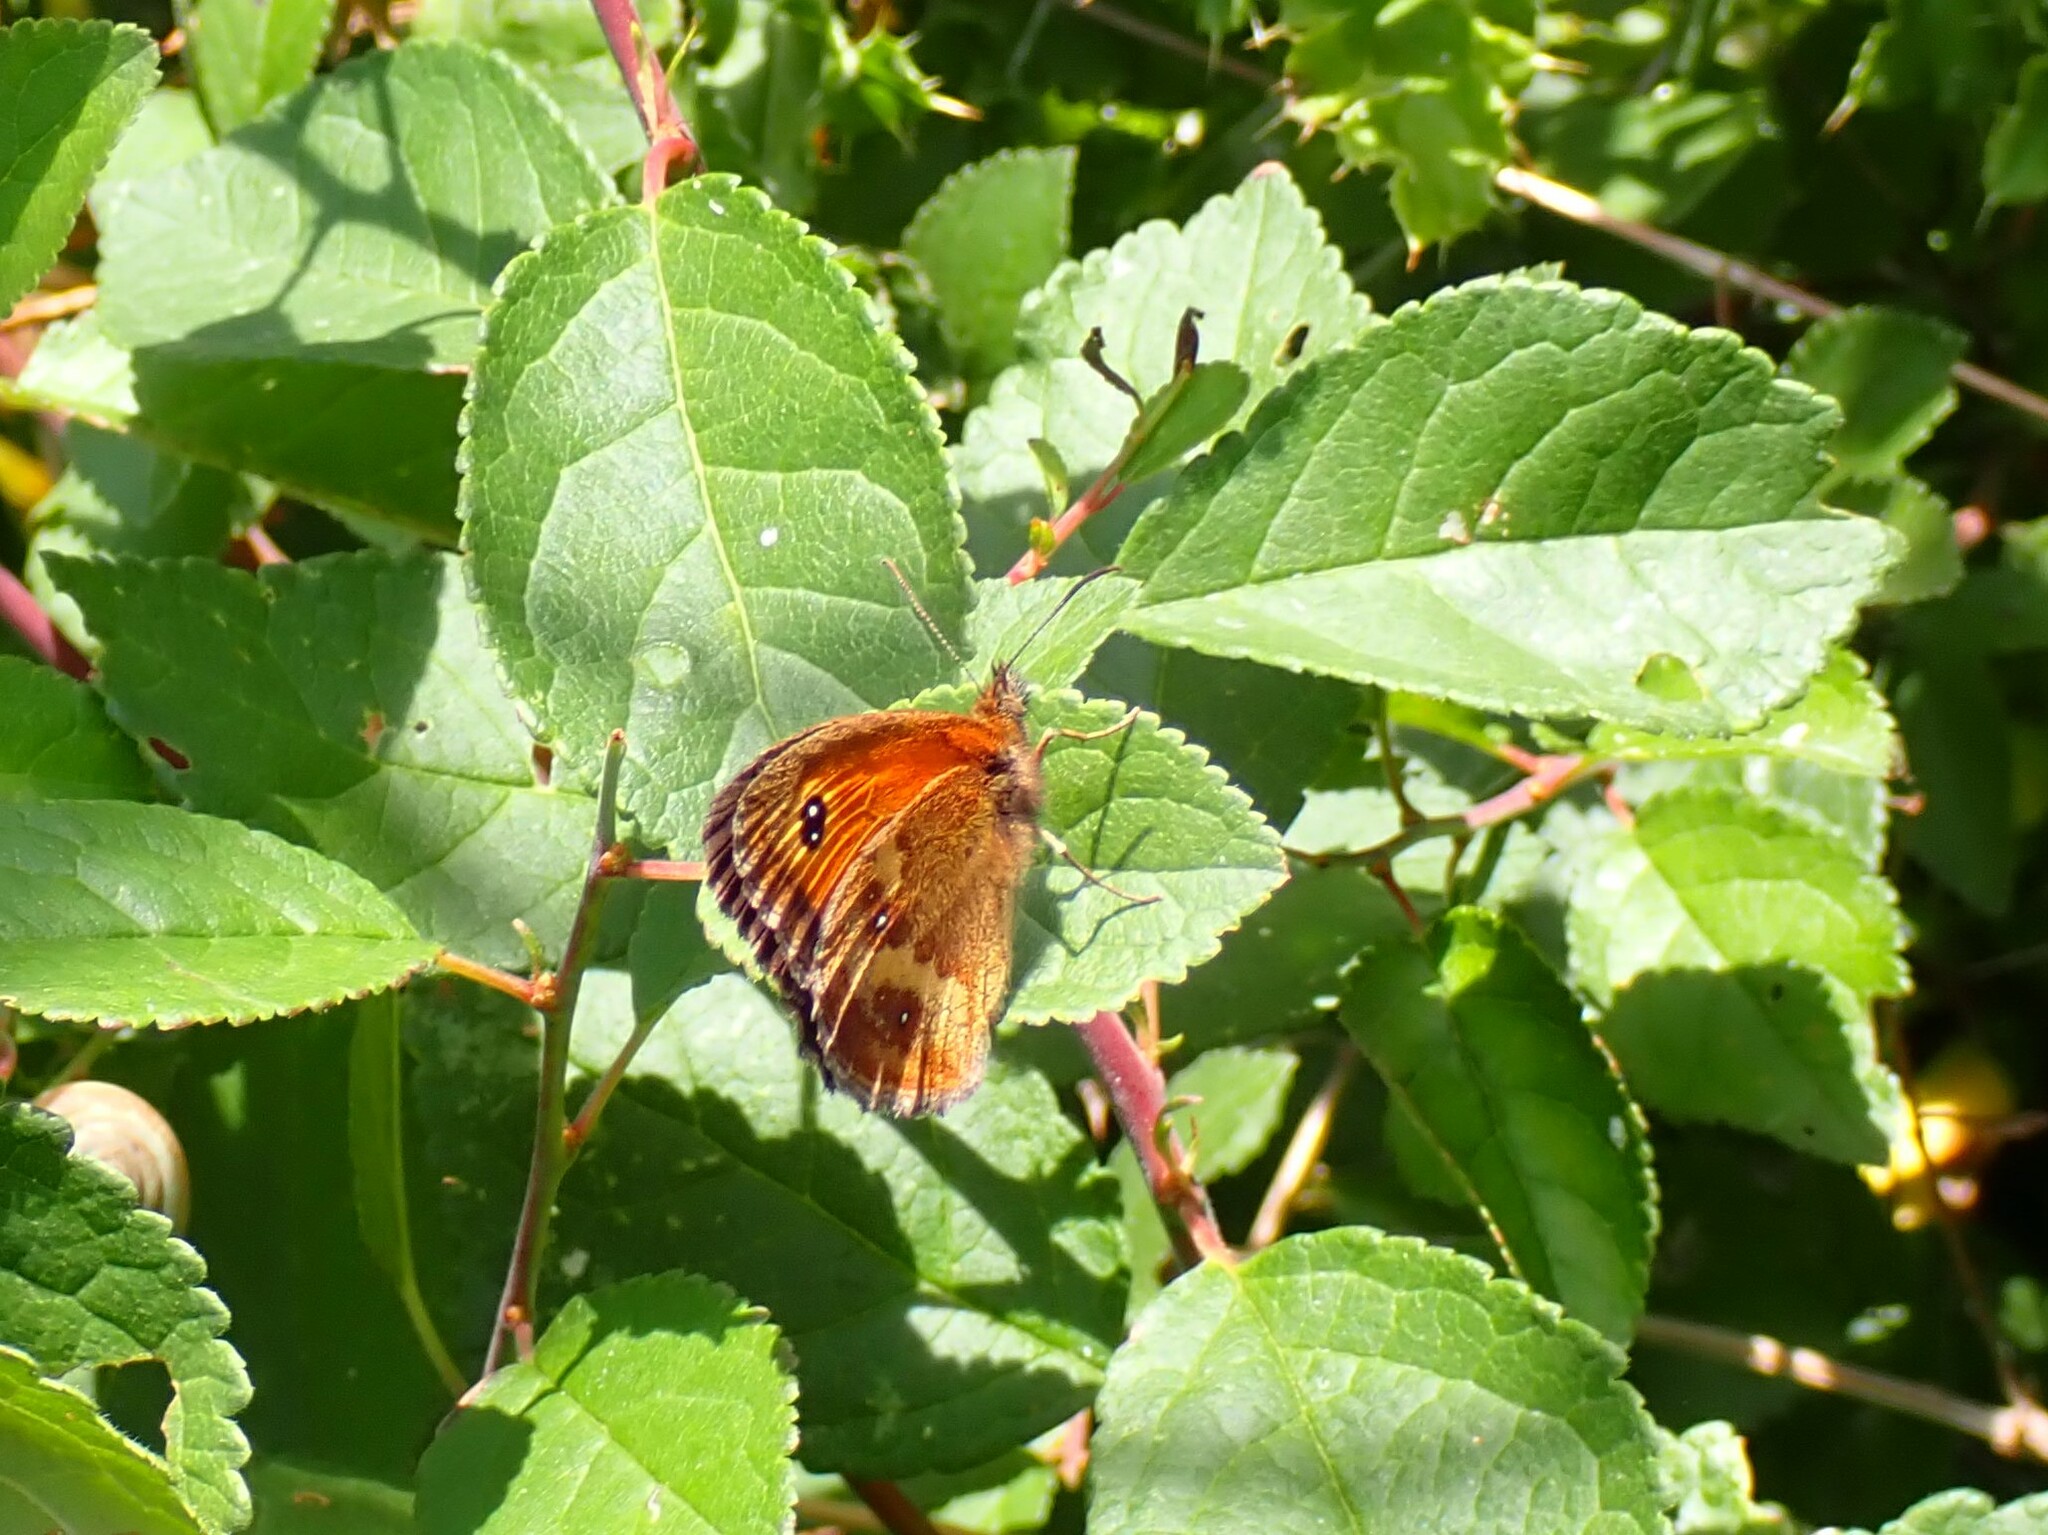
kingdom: Animalia
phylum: Arthropoda
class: Insecta
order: Lepidoptera
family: Nymphalidae
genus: Pyronia
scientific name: Pyronia tithonus
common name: Gatekeeper
